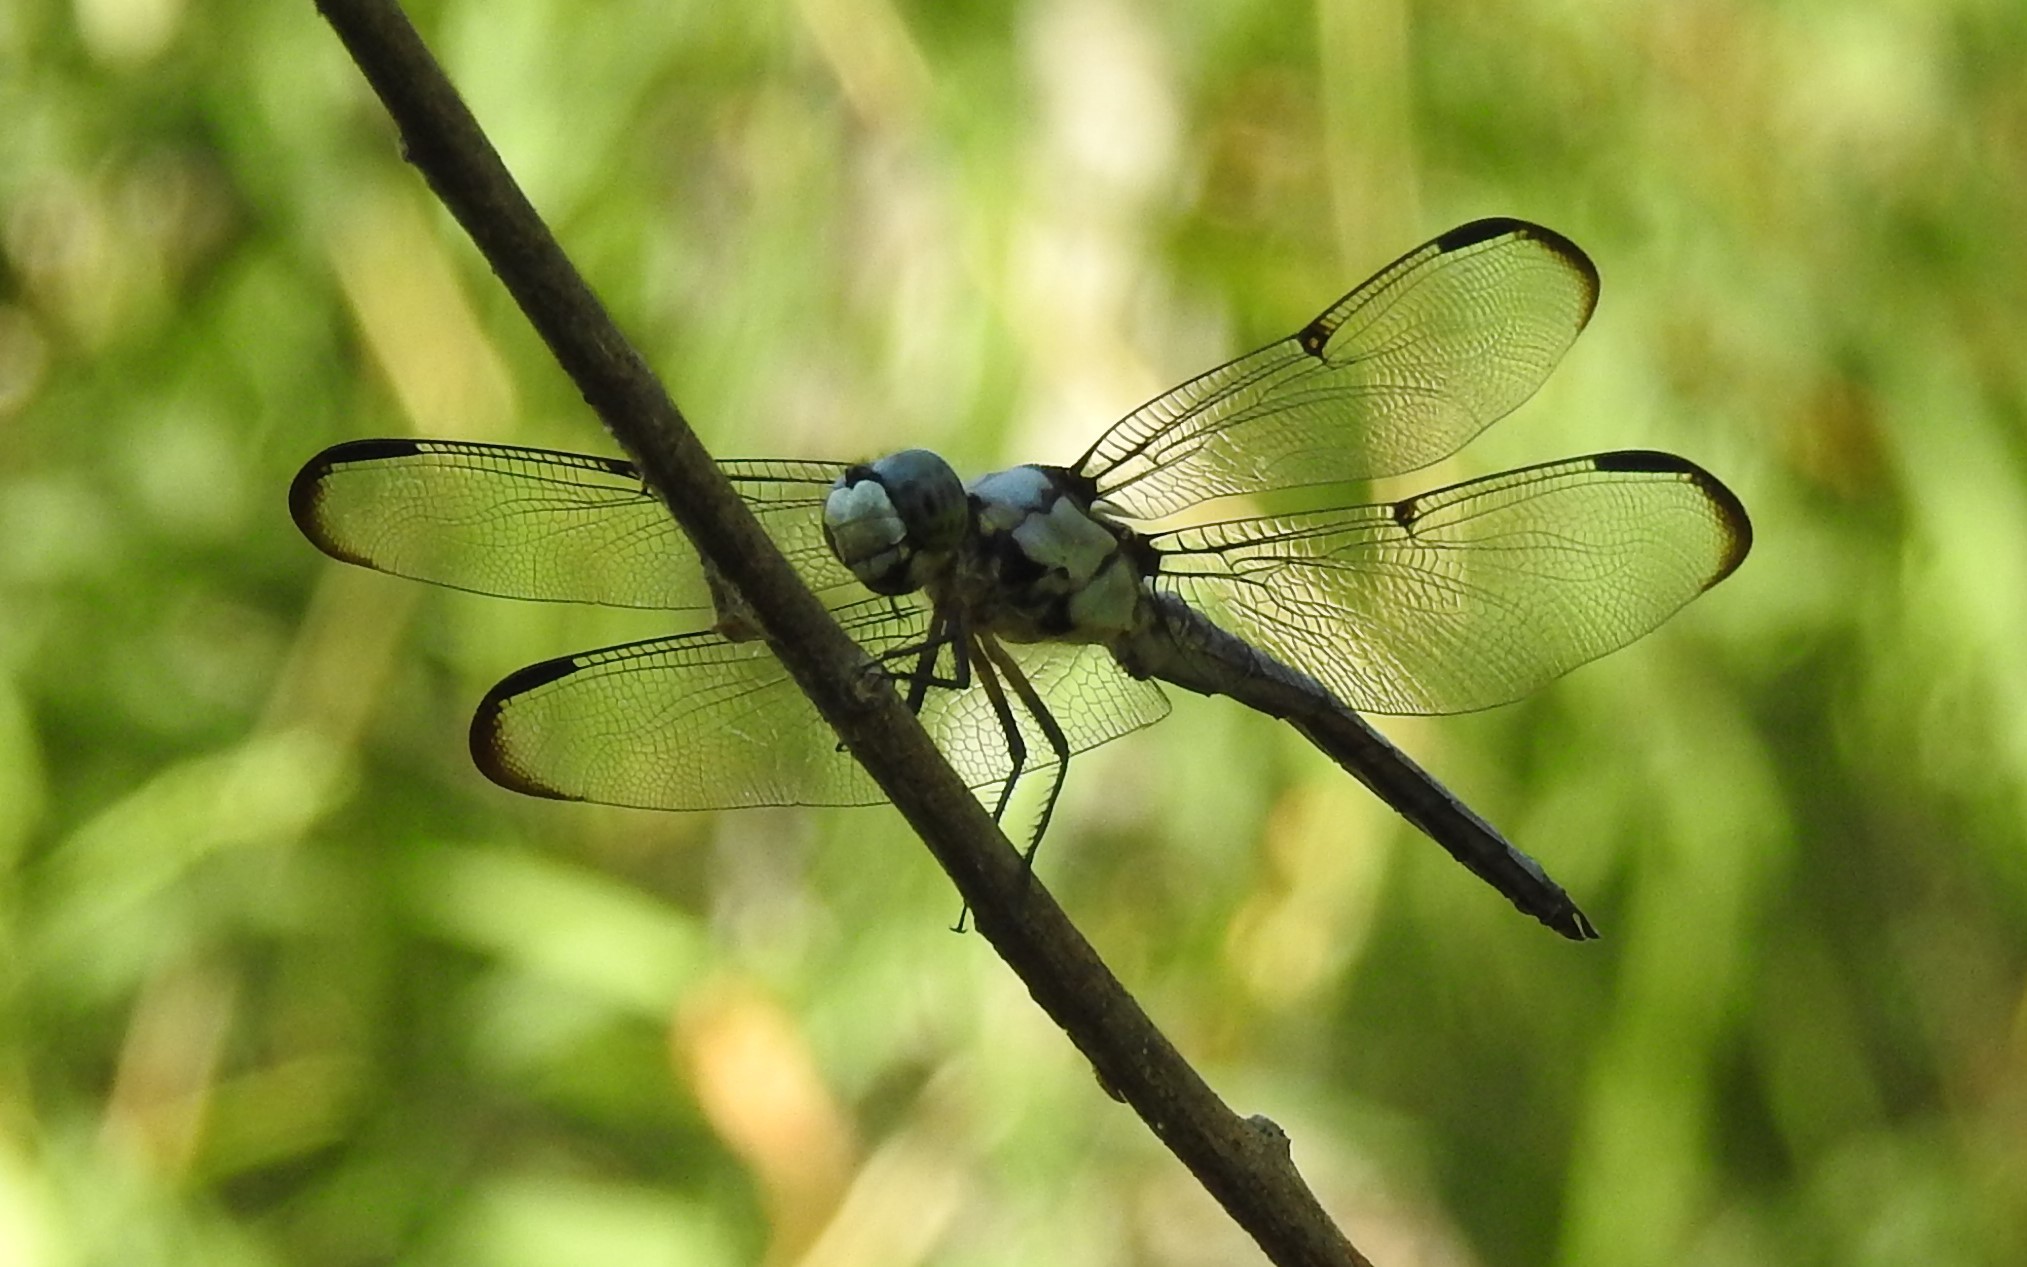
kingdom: Animalia
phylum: Arthropoda
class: Insecta
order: Odonata
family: Libellulidae
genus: Libellula
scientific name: Libellula vibrans
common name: Great blue skimmer
